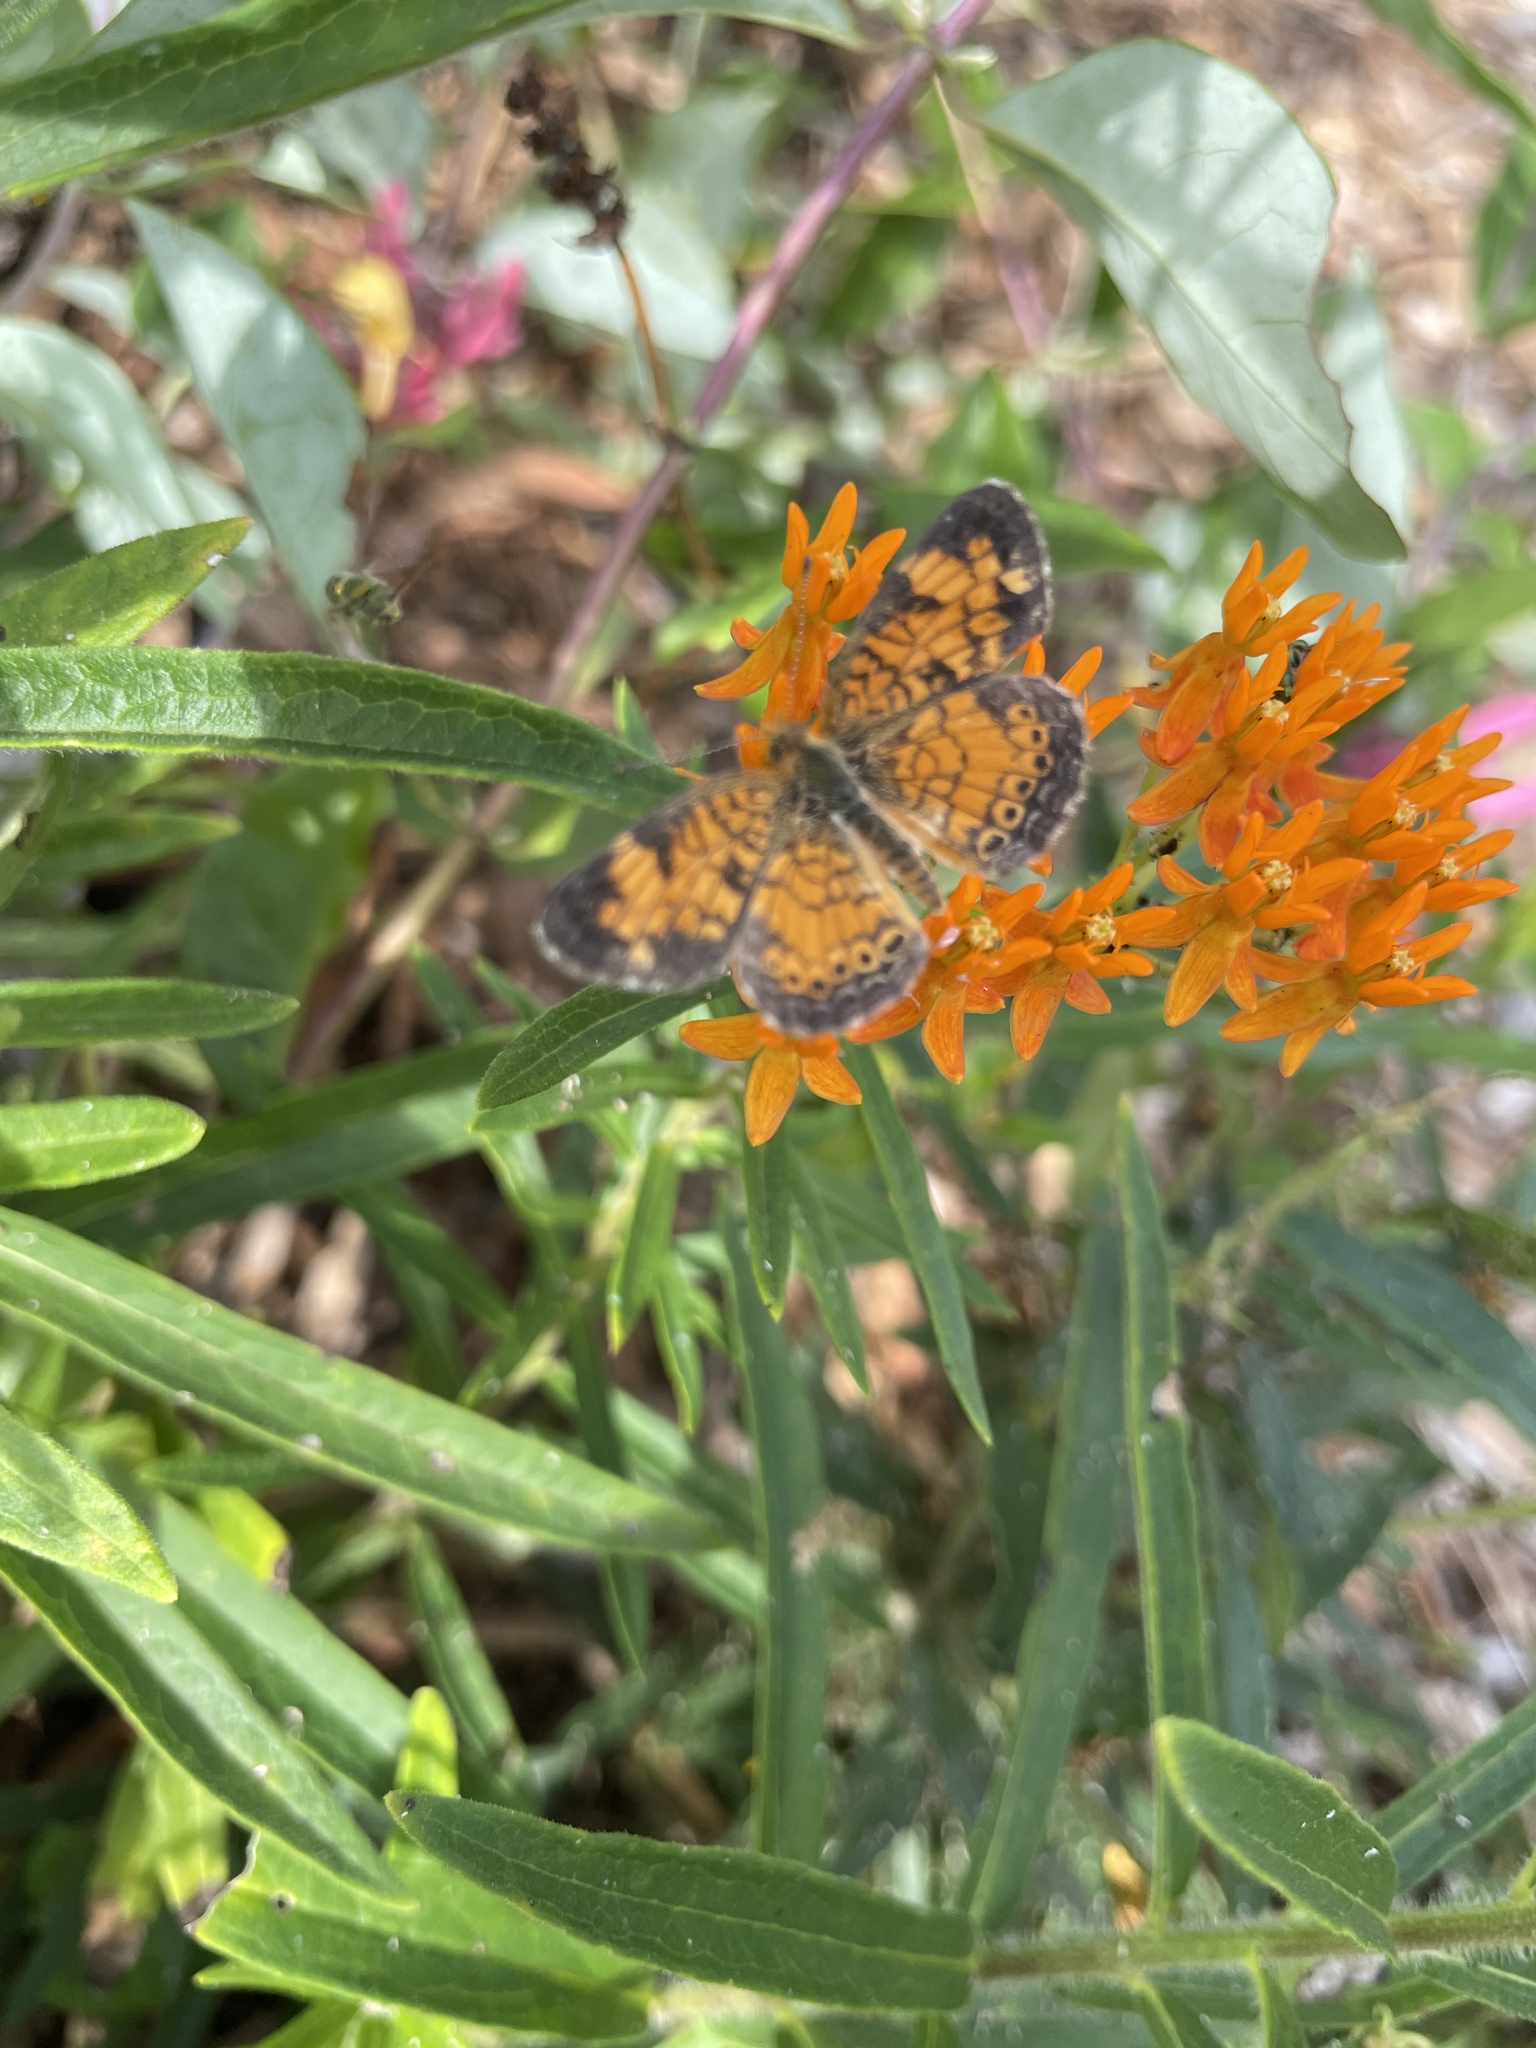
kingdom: Animalia
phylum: Arthropoda
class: Insecta
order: Lepidoptera
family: Nymphalidae
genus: Phyciodes
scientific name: Phyciodes tharos
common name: Pearl crescent
